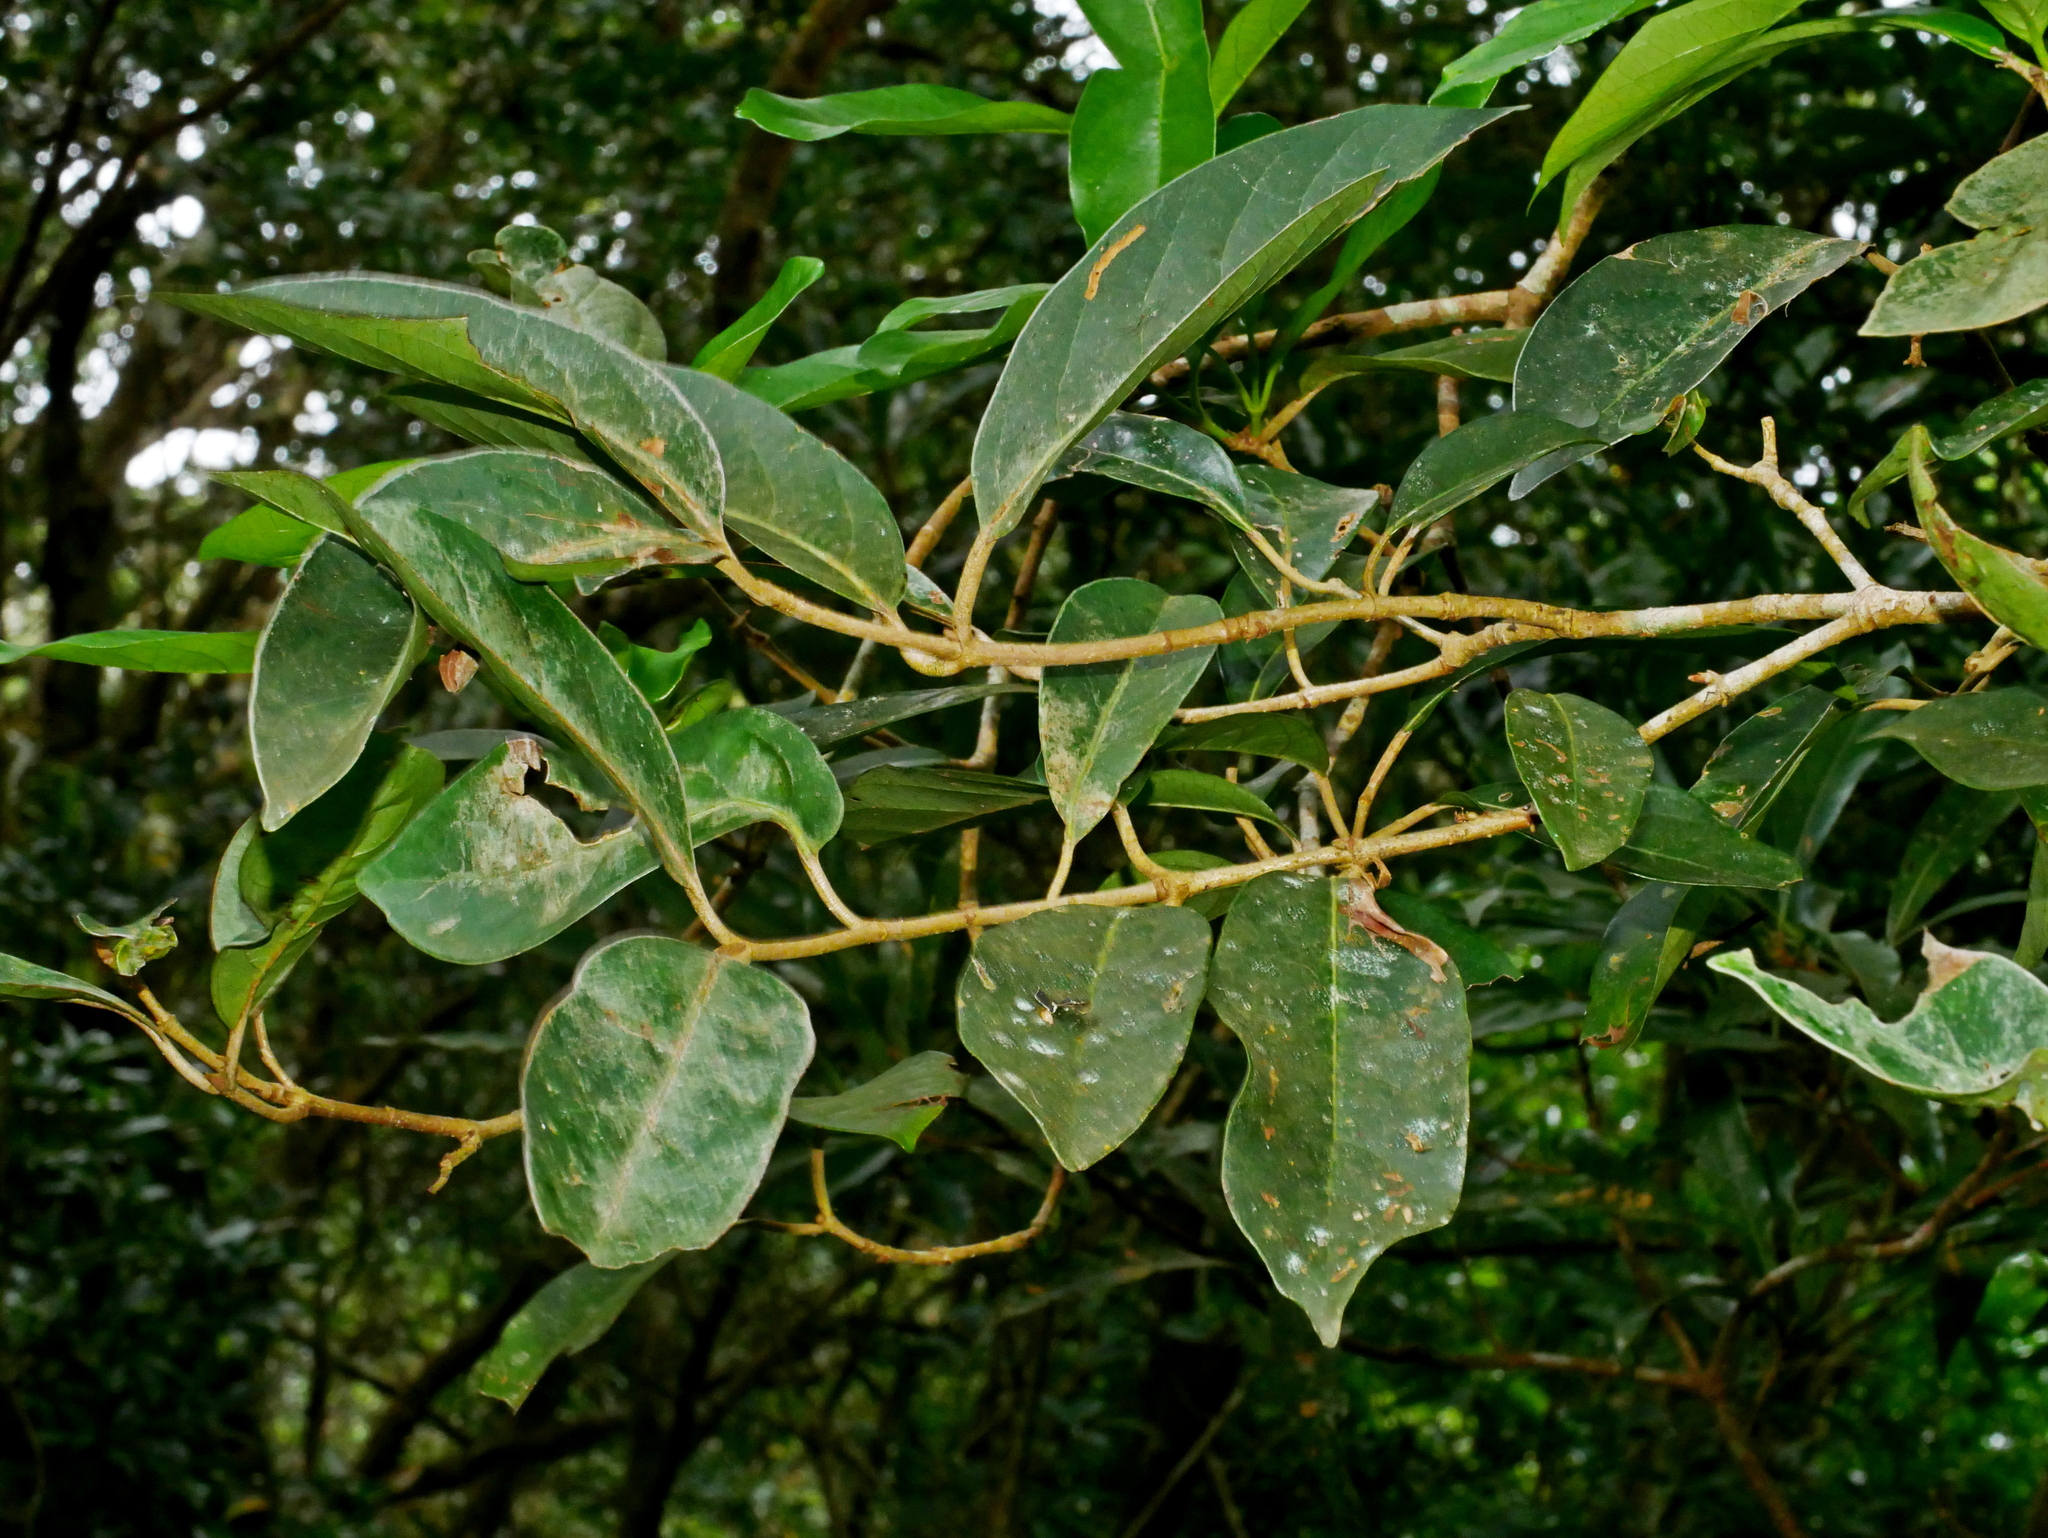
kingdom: Plantae
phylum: Tracheophyta
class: Magnoliopsida
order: Dipsacales
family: Viburnaceae
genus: Viburnum
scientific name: Viburnum odoratissimum
